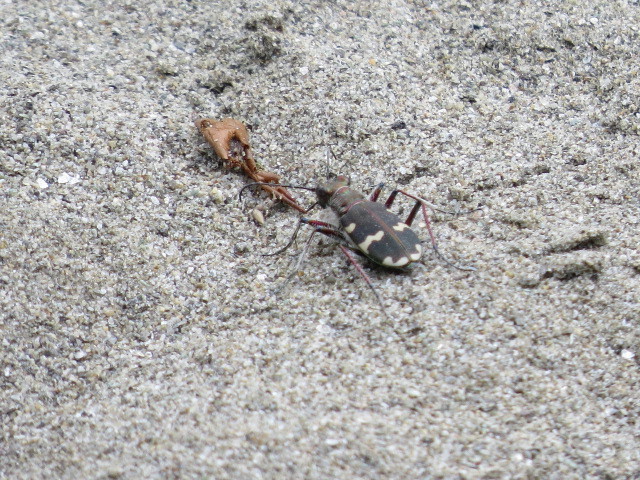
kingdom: Animalia
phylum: Arthropoda
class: Insecta
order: Coleoptera
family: Carabidae
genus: Cicindela
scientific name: Cicindela hybrida
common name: Northern dune tiger beetle
